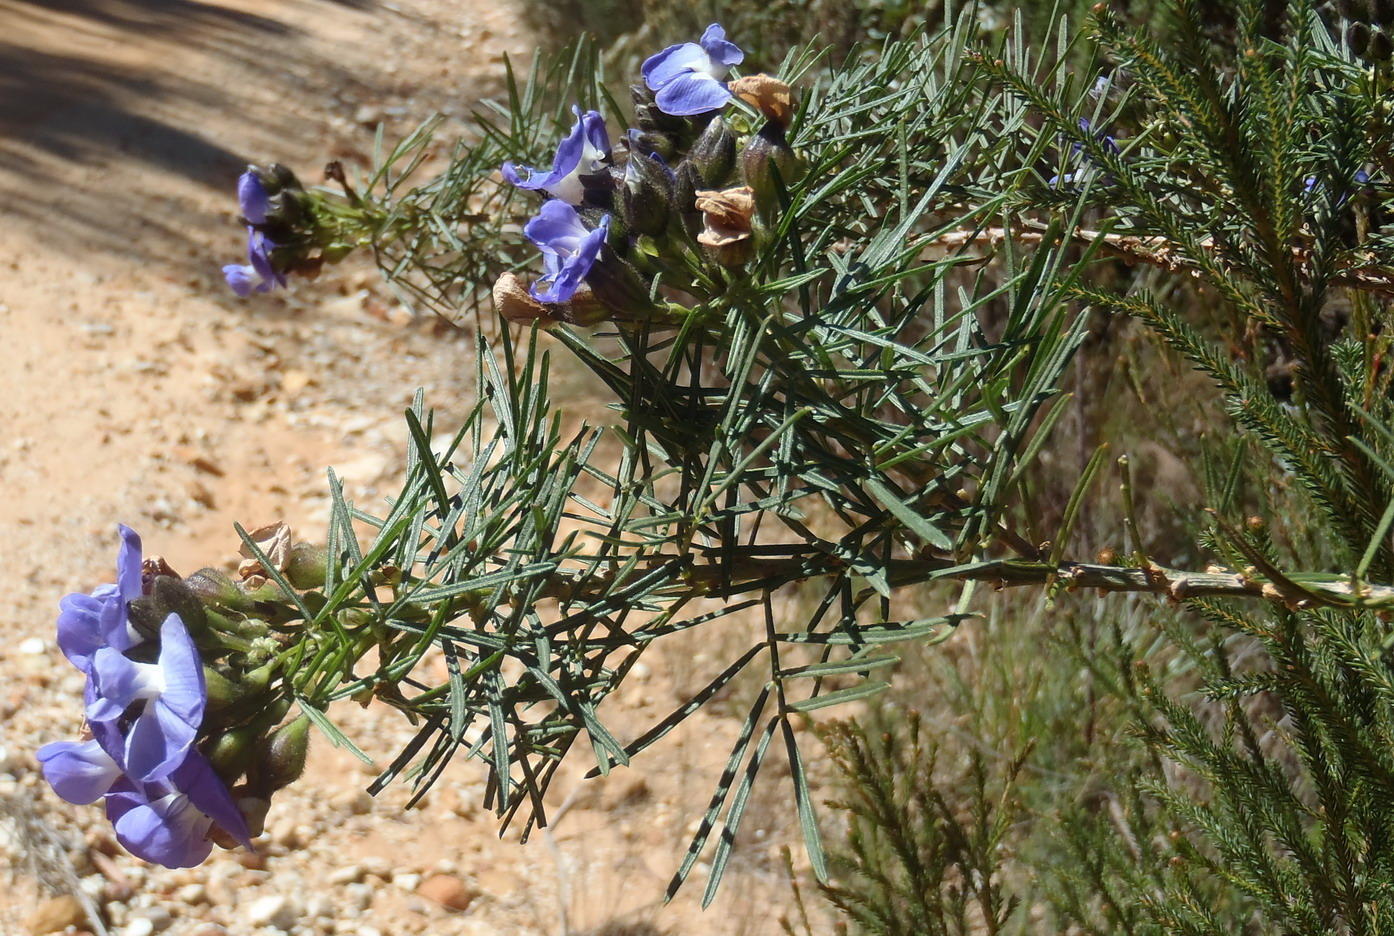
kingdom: Plantae
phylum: Tracheophyta
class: Magnoliopsida
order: Fabales
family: Fabaceae
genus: Psoralea
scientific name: Psoralea affinis
